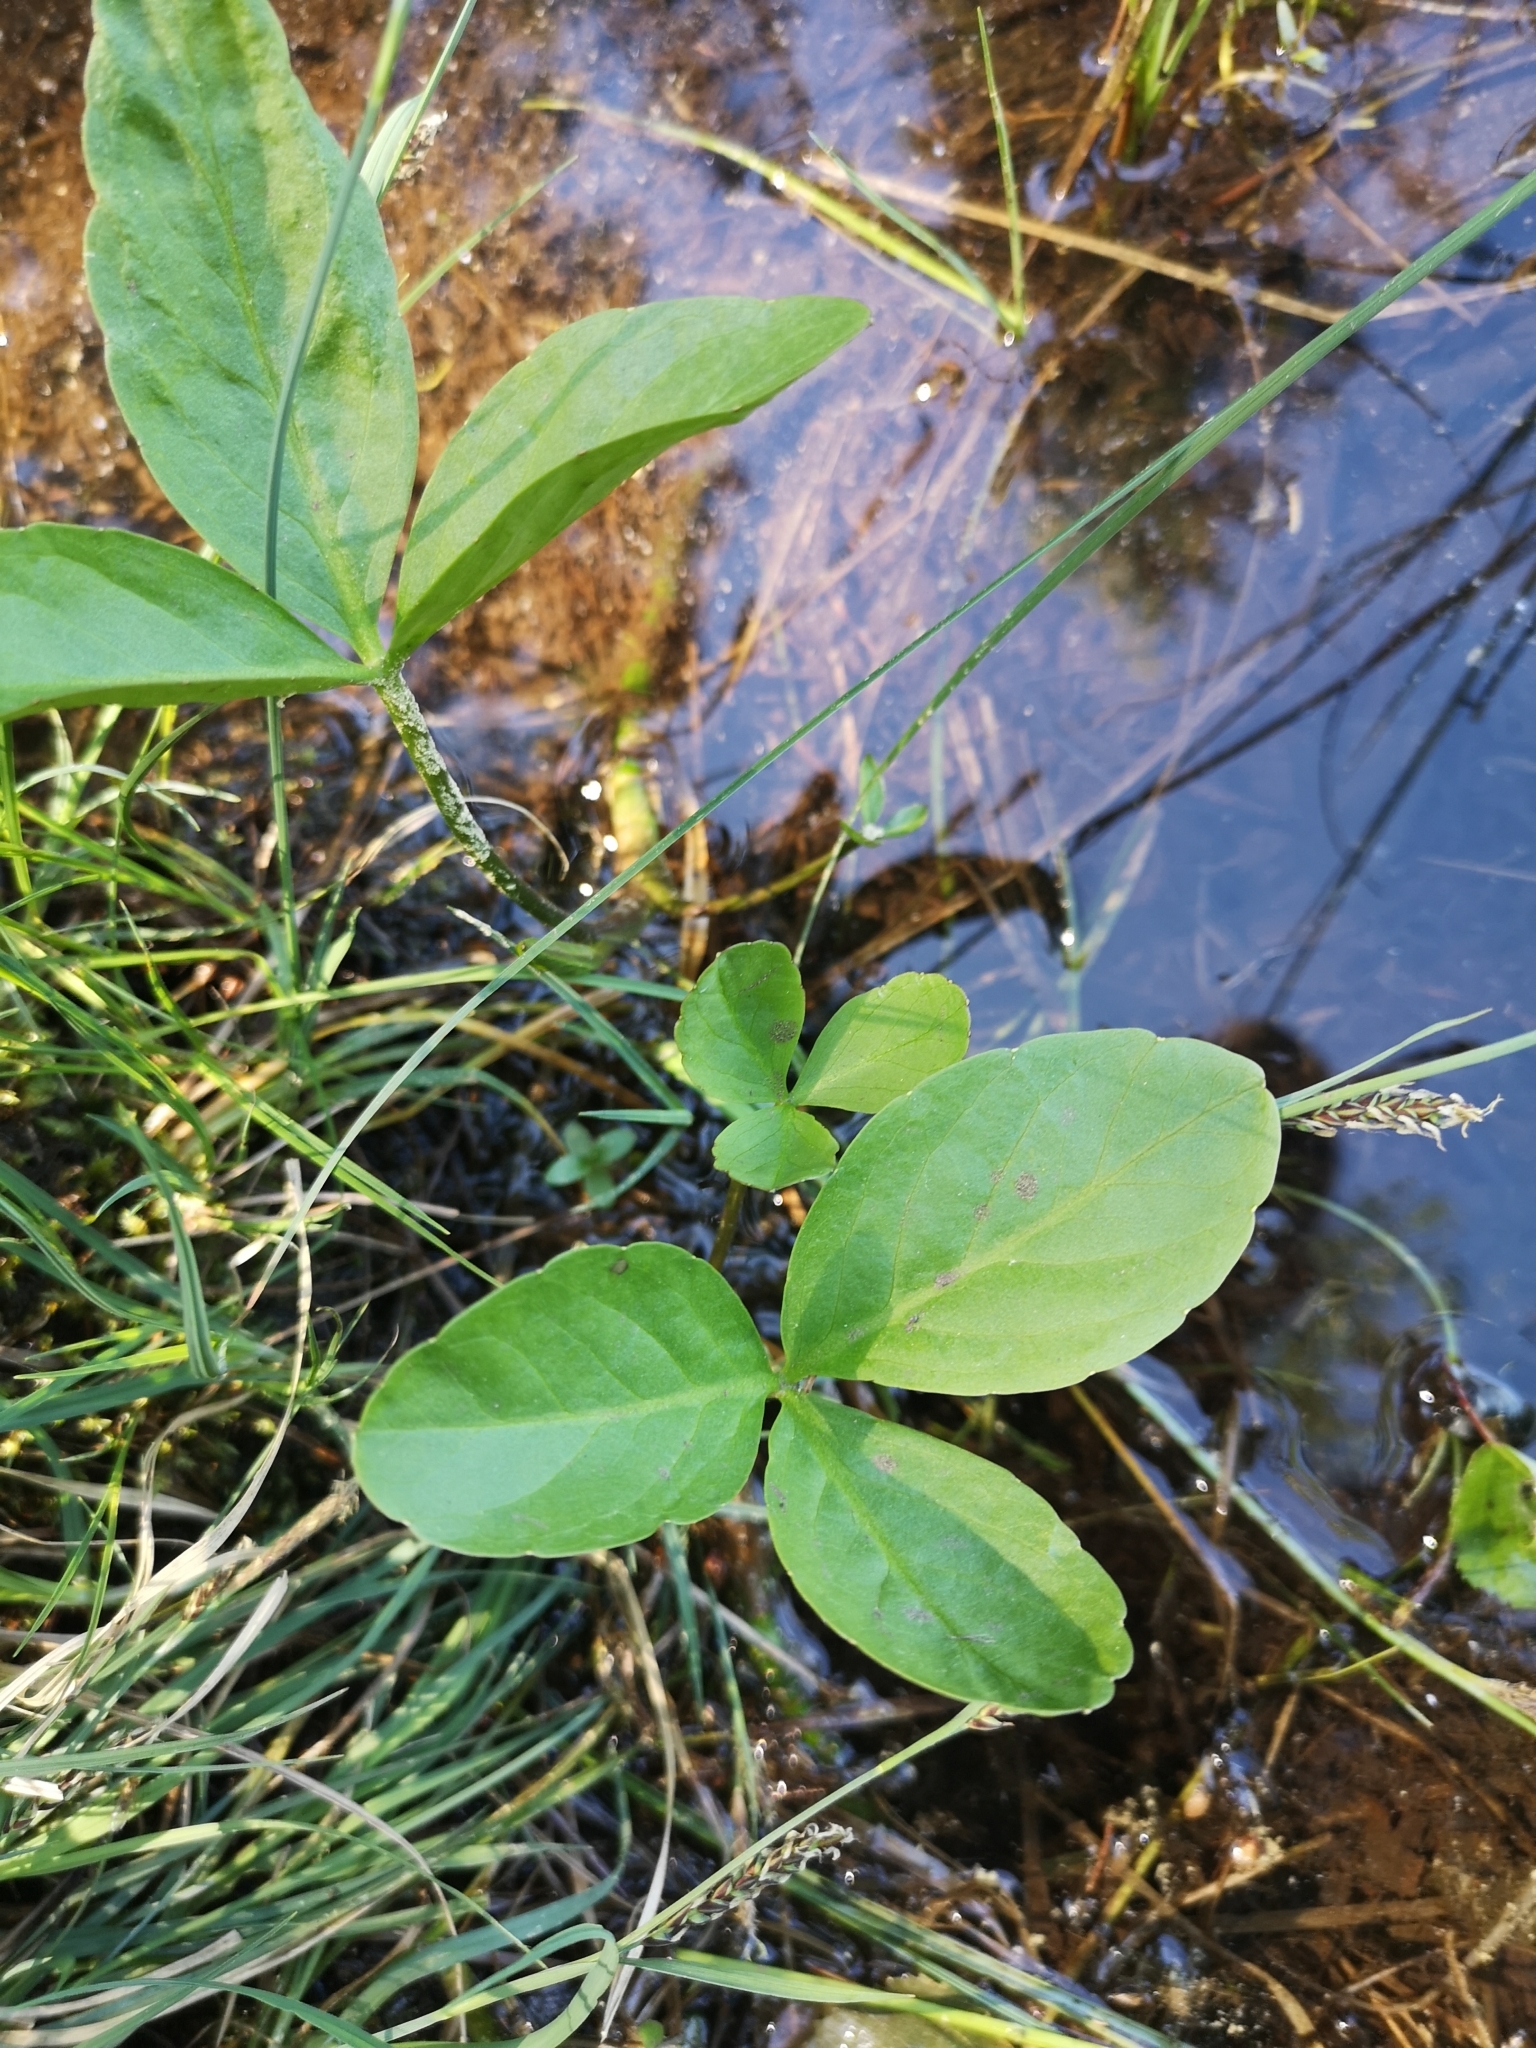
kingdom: Plantae
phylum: Tracheophyta
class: Magnoliopsida
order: Asterales
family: Menyanthaceae
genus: Menyanthes
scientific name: Menyanthes trifoliata
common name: Bogbean
